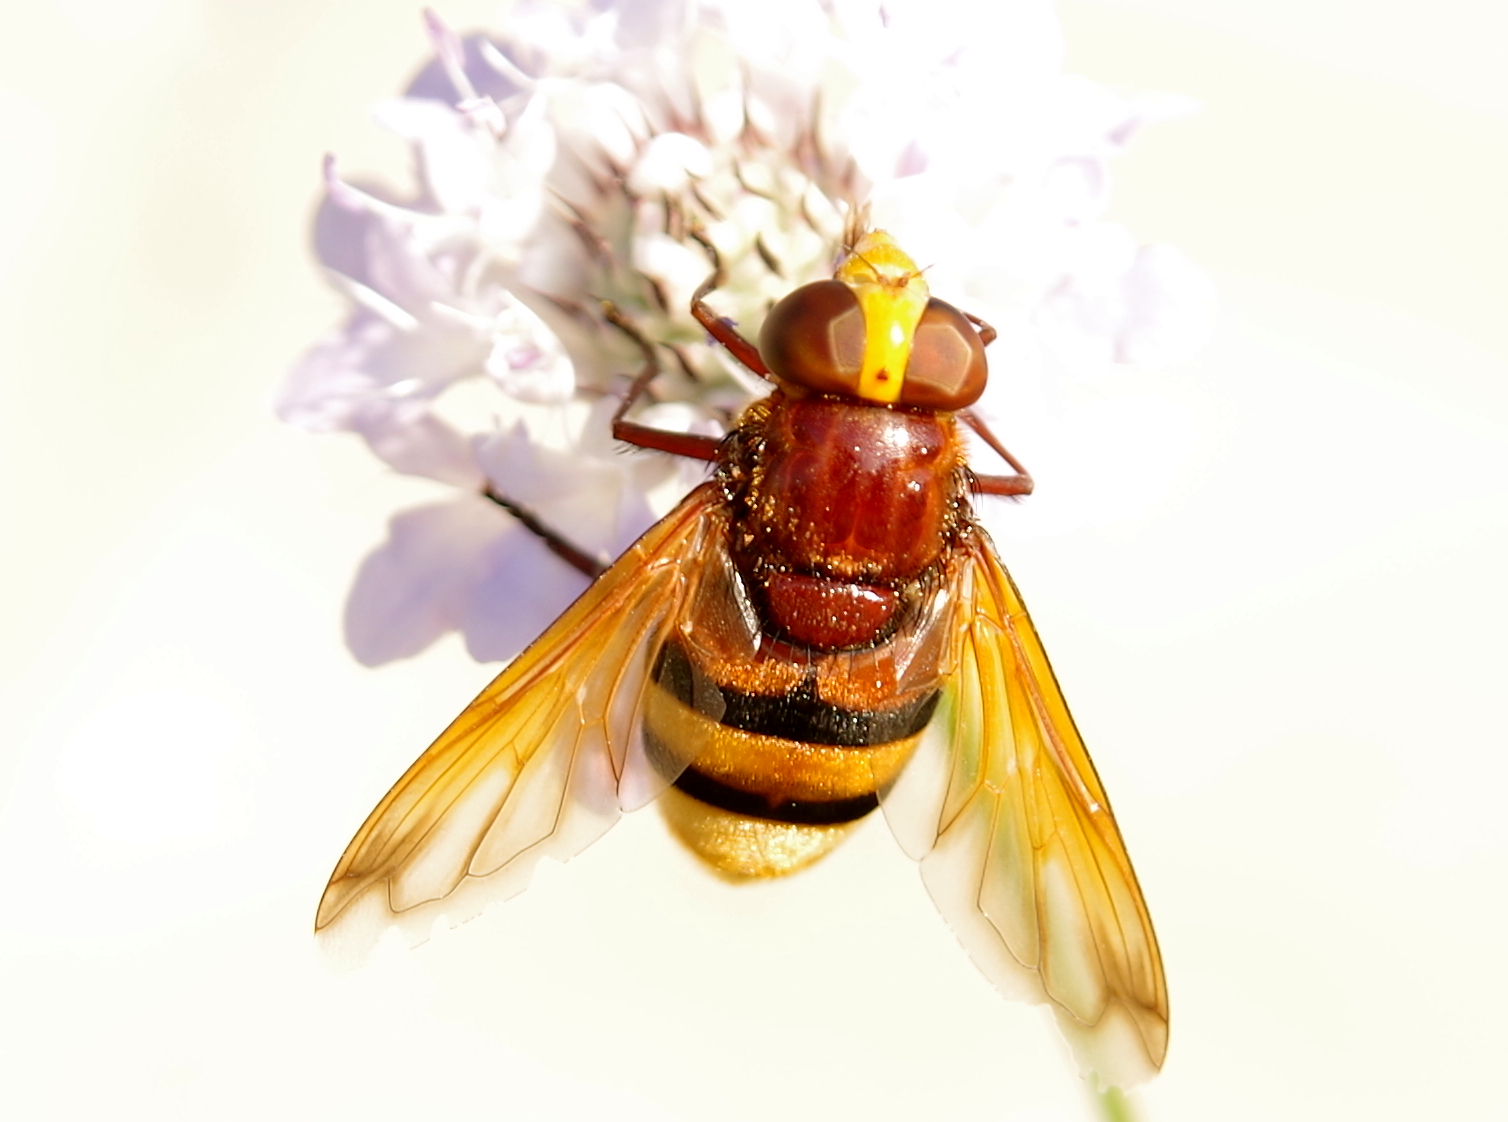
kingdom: Animalia
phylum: Arthropoda
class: Insecta
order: Diptera
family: Syrphidae
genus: Volucella
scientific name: Volucella zonaria
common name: Hornet hoverfly
